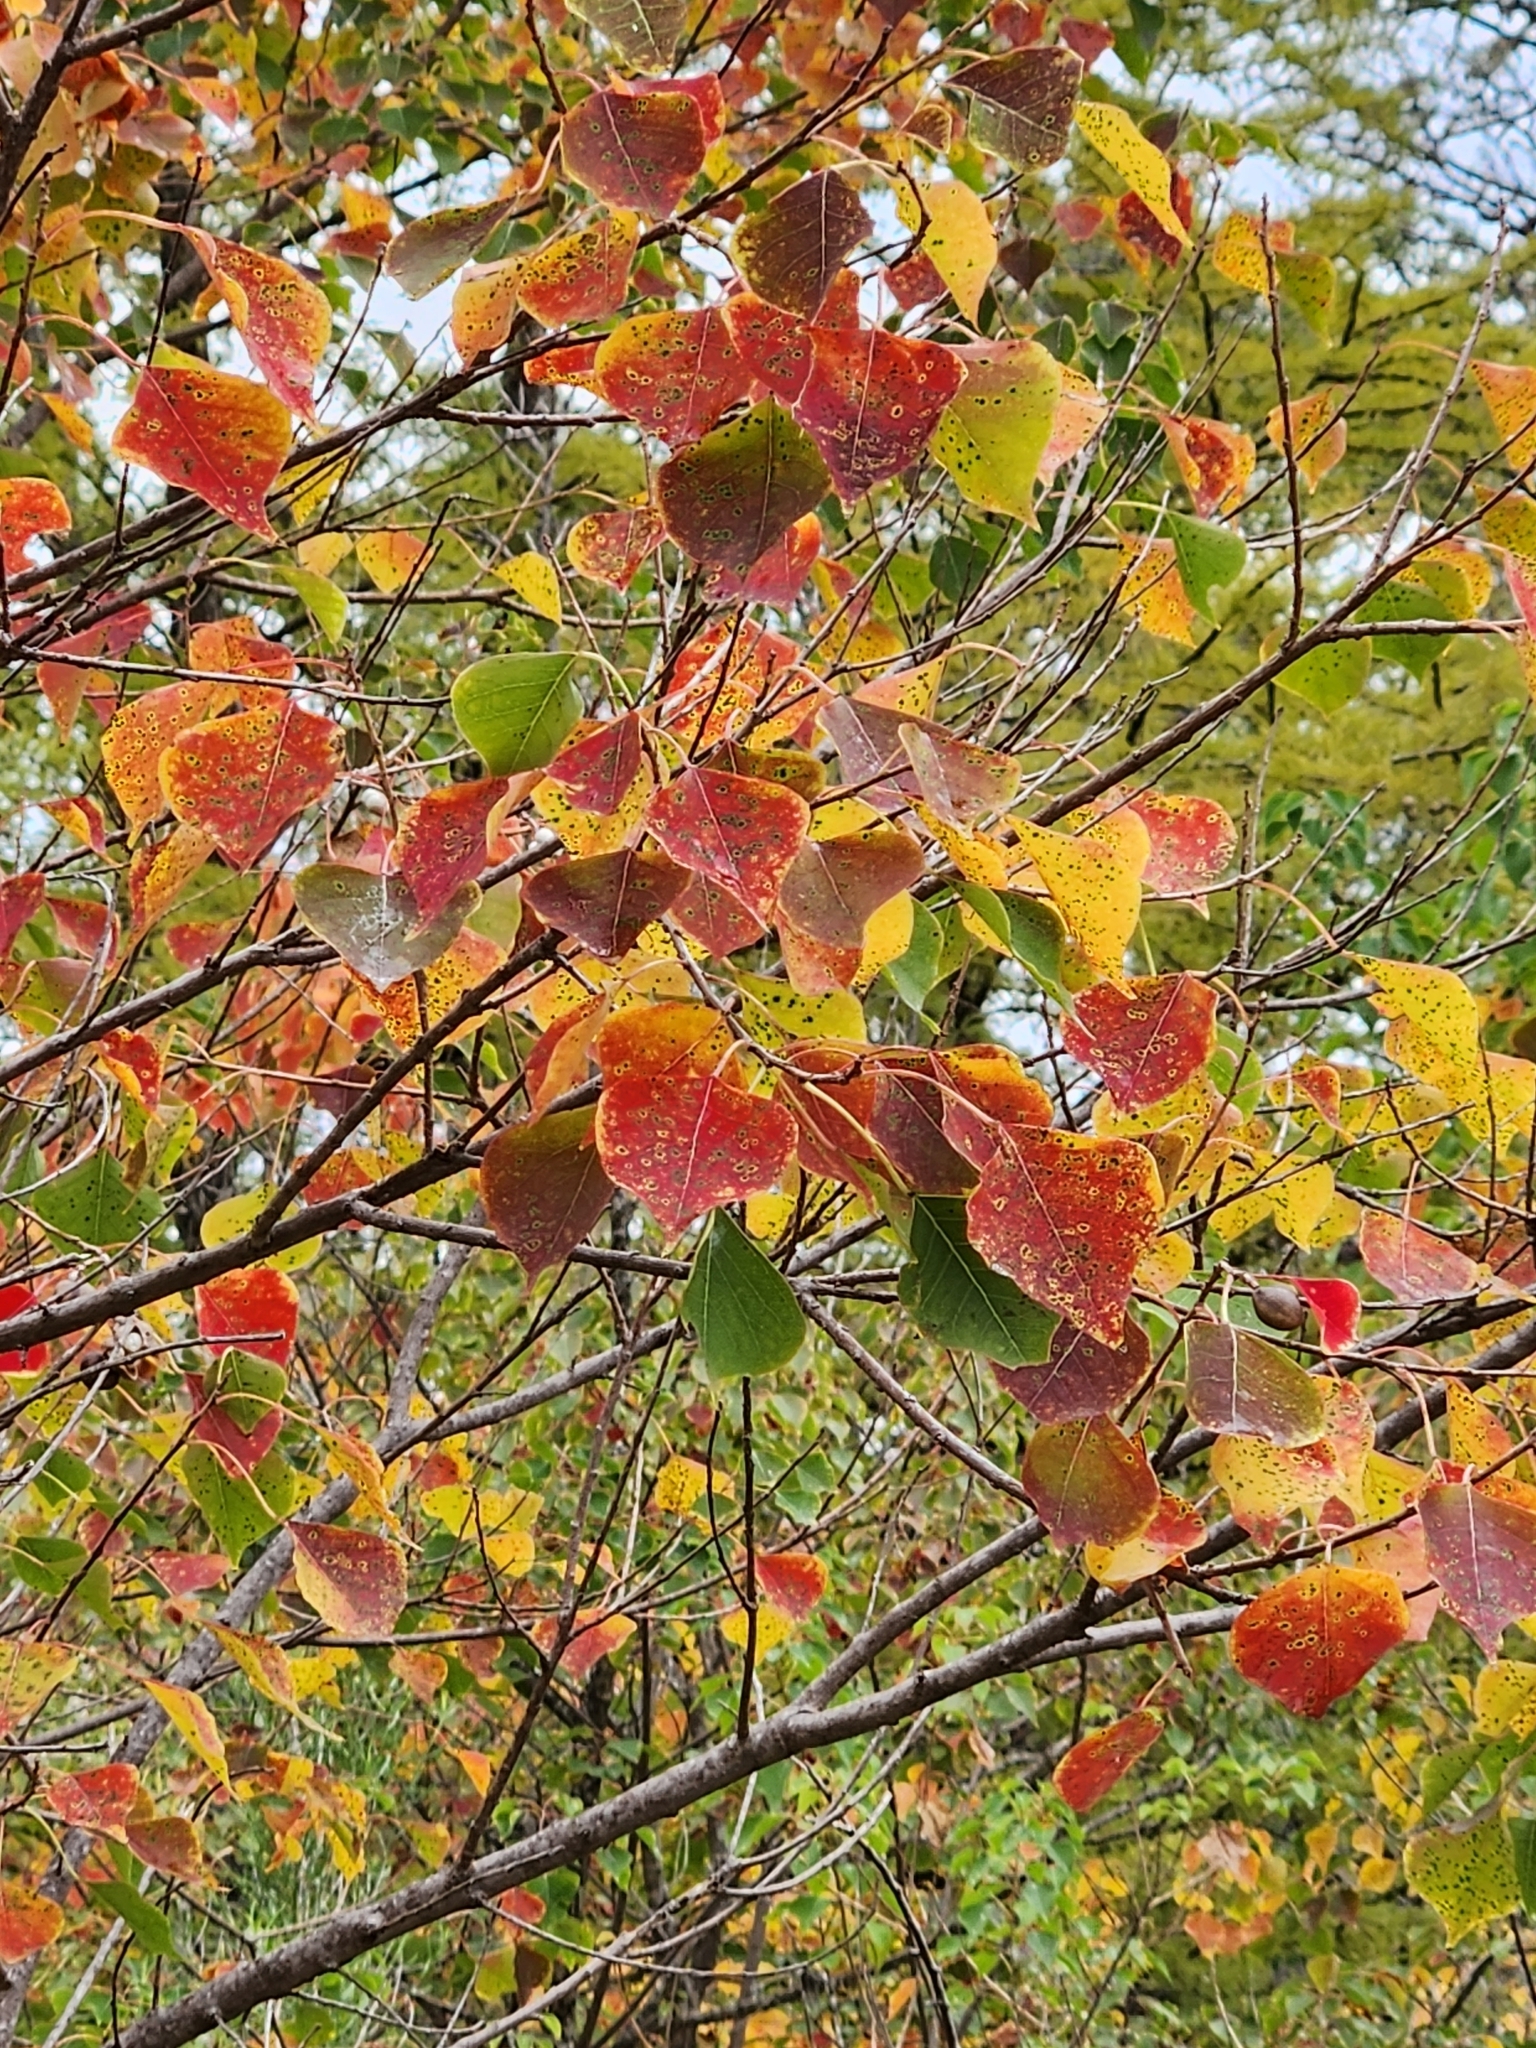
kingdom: Plantae
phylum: Tracheophyta
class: Magnoliopsida
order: Malpighiales
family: Euphorbiaceae
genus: Triadica
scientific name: Triadica sebifera
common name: Chinese tallow
